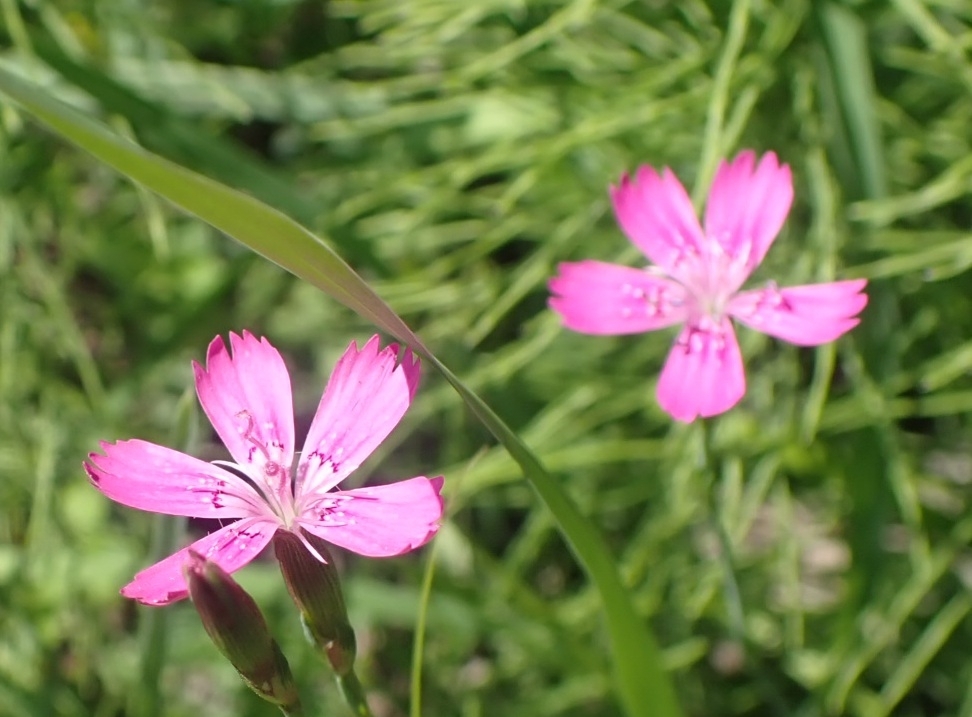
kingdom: Plantae
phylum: Tracheophyta
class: Magnoliopsida
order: Caryophyllales
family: Caryophyllaceae
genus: Dianthus
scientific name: Dianthus deltoides
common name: Maiden pink
